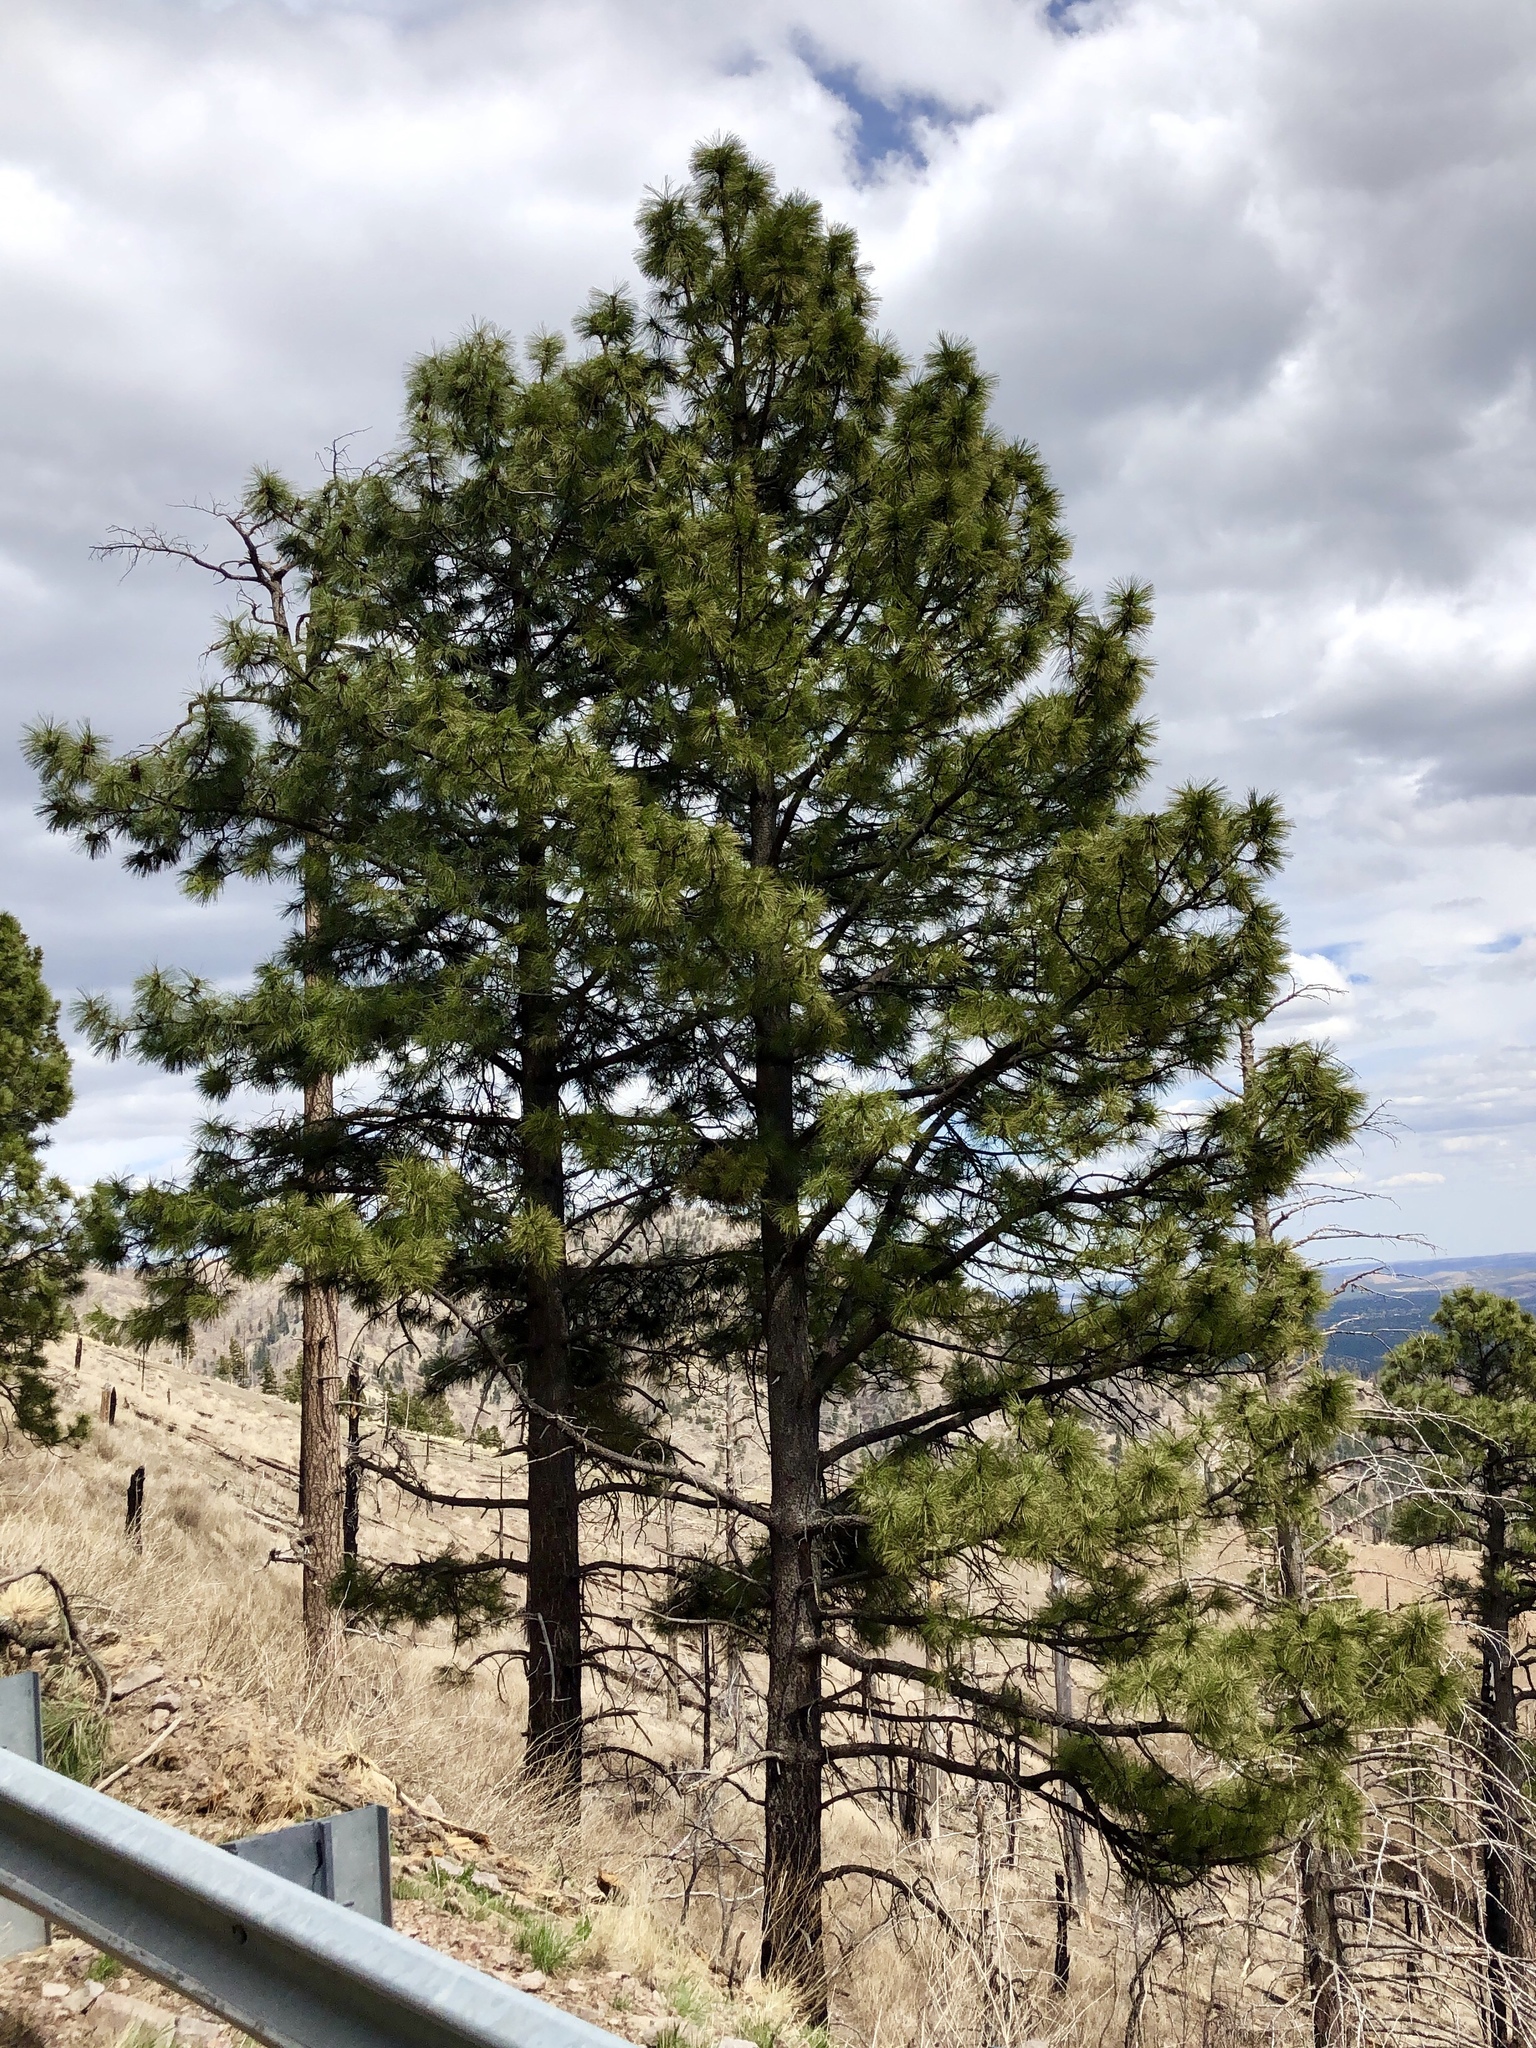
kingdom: Plantae
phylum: Tracheophyta
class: Pinopsida
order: Pinales
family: Pinaceae
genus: Pinus
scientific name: Pinus ponderosa
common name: Western yellow-pine
